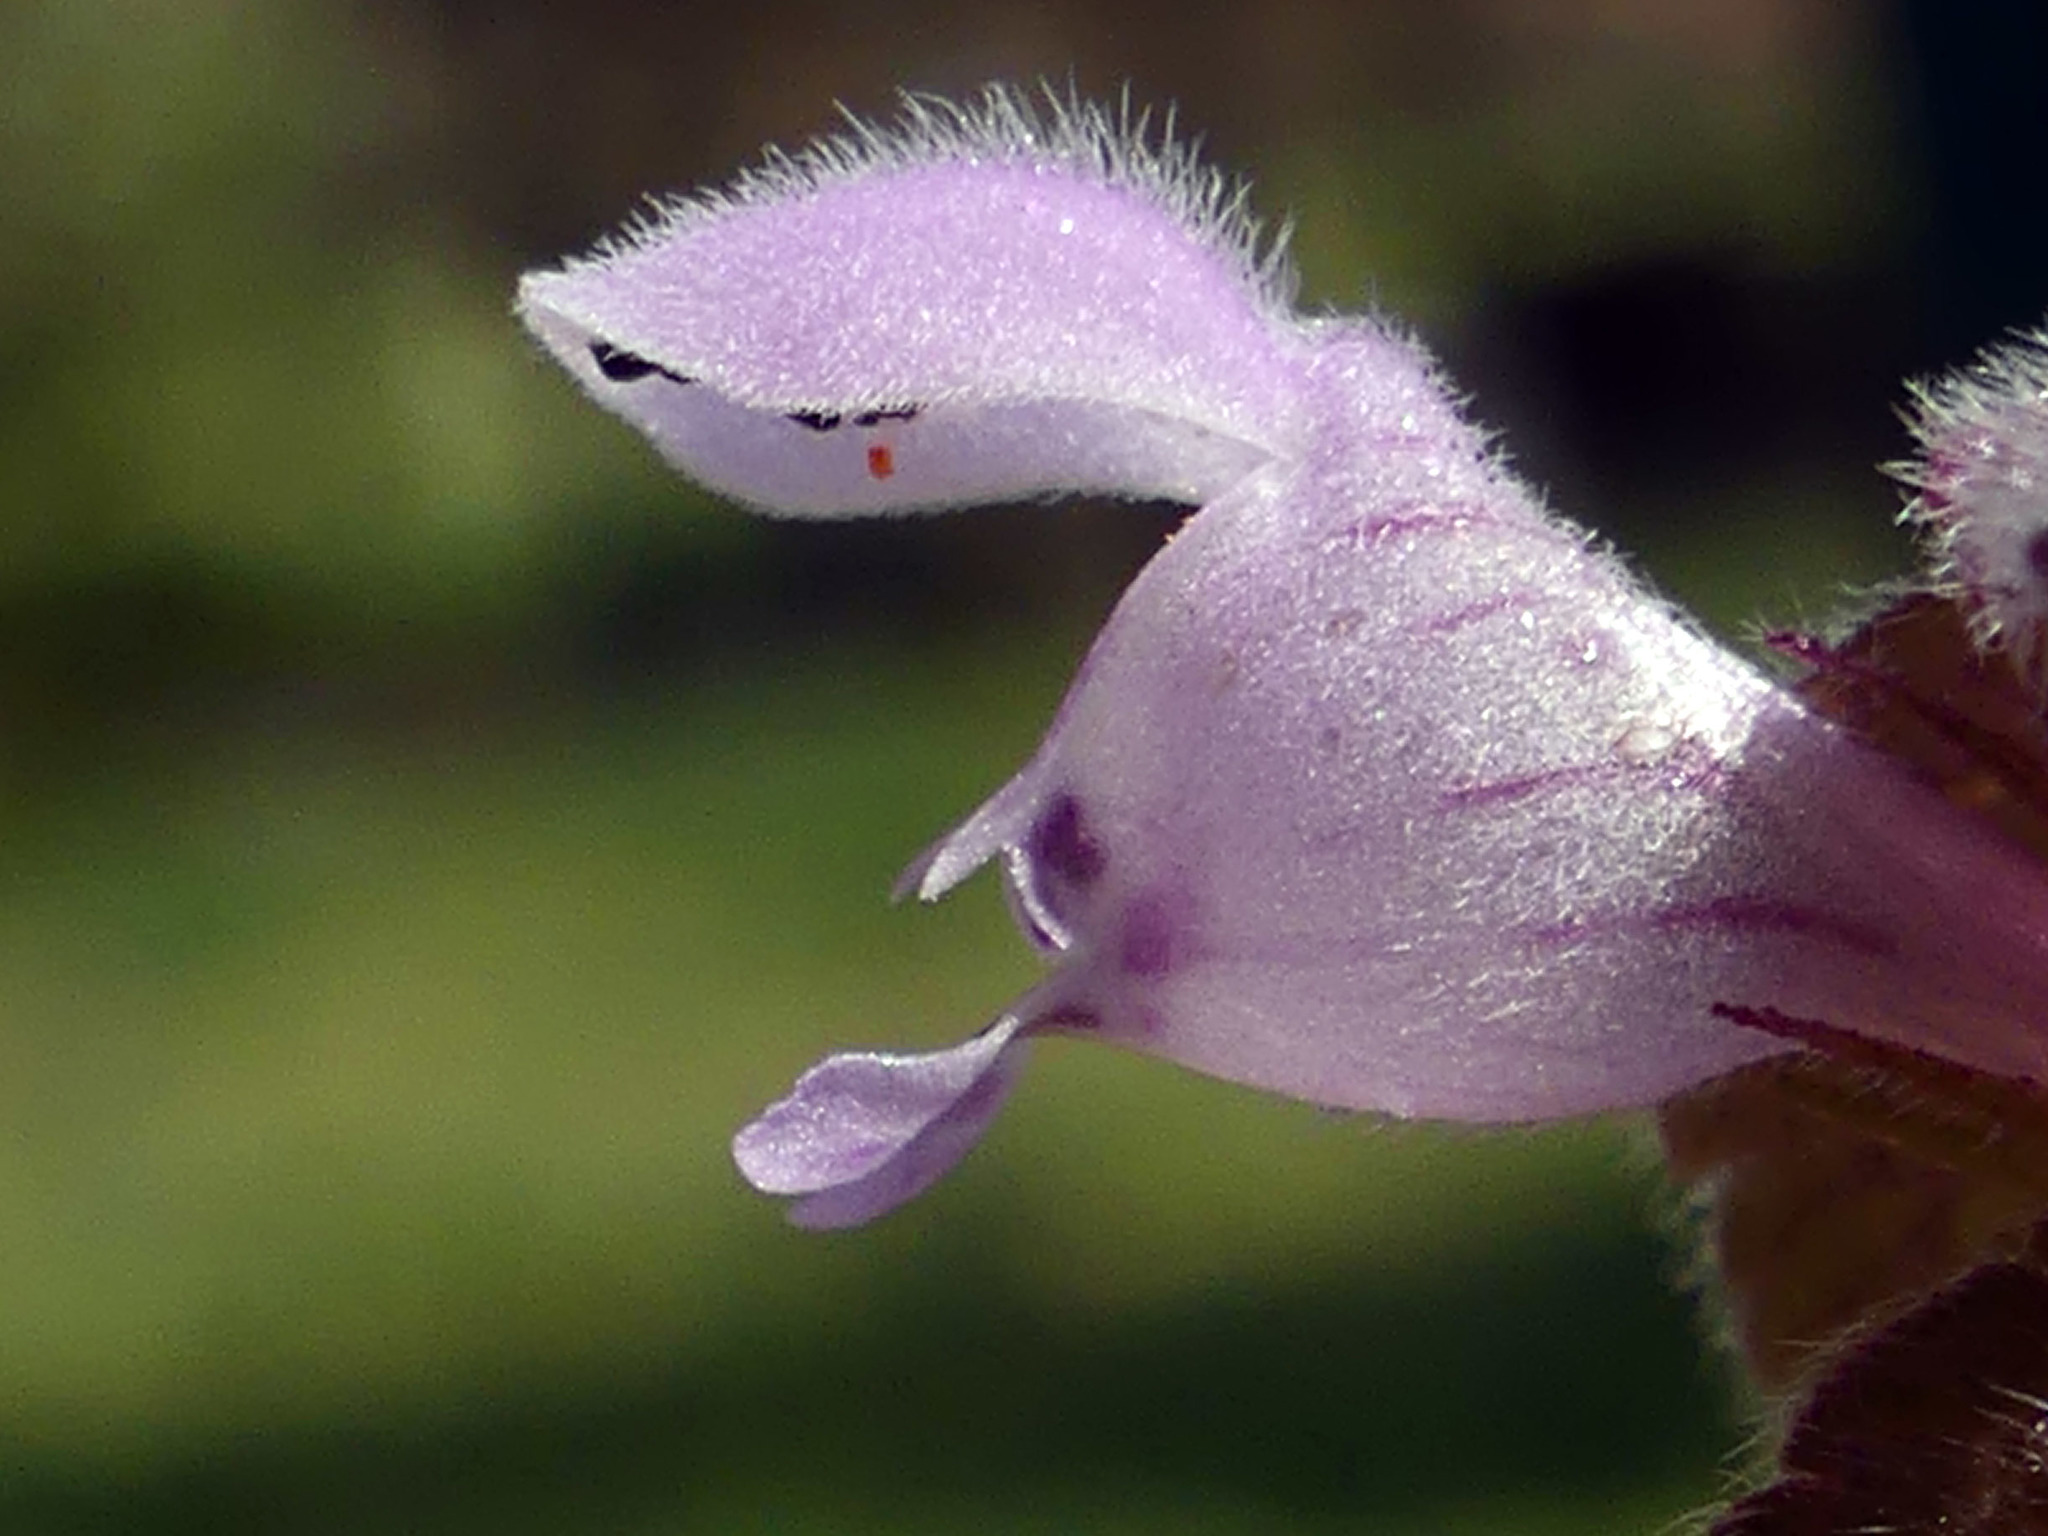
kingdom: Plantae
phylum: Tracheophyta
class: Magnoliopsida
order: Lamiales
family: Lamiaceae
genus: Lamium
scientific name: Lamium purpureum
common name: Red dead-nettle
